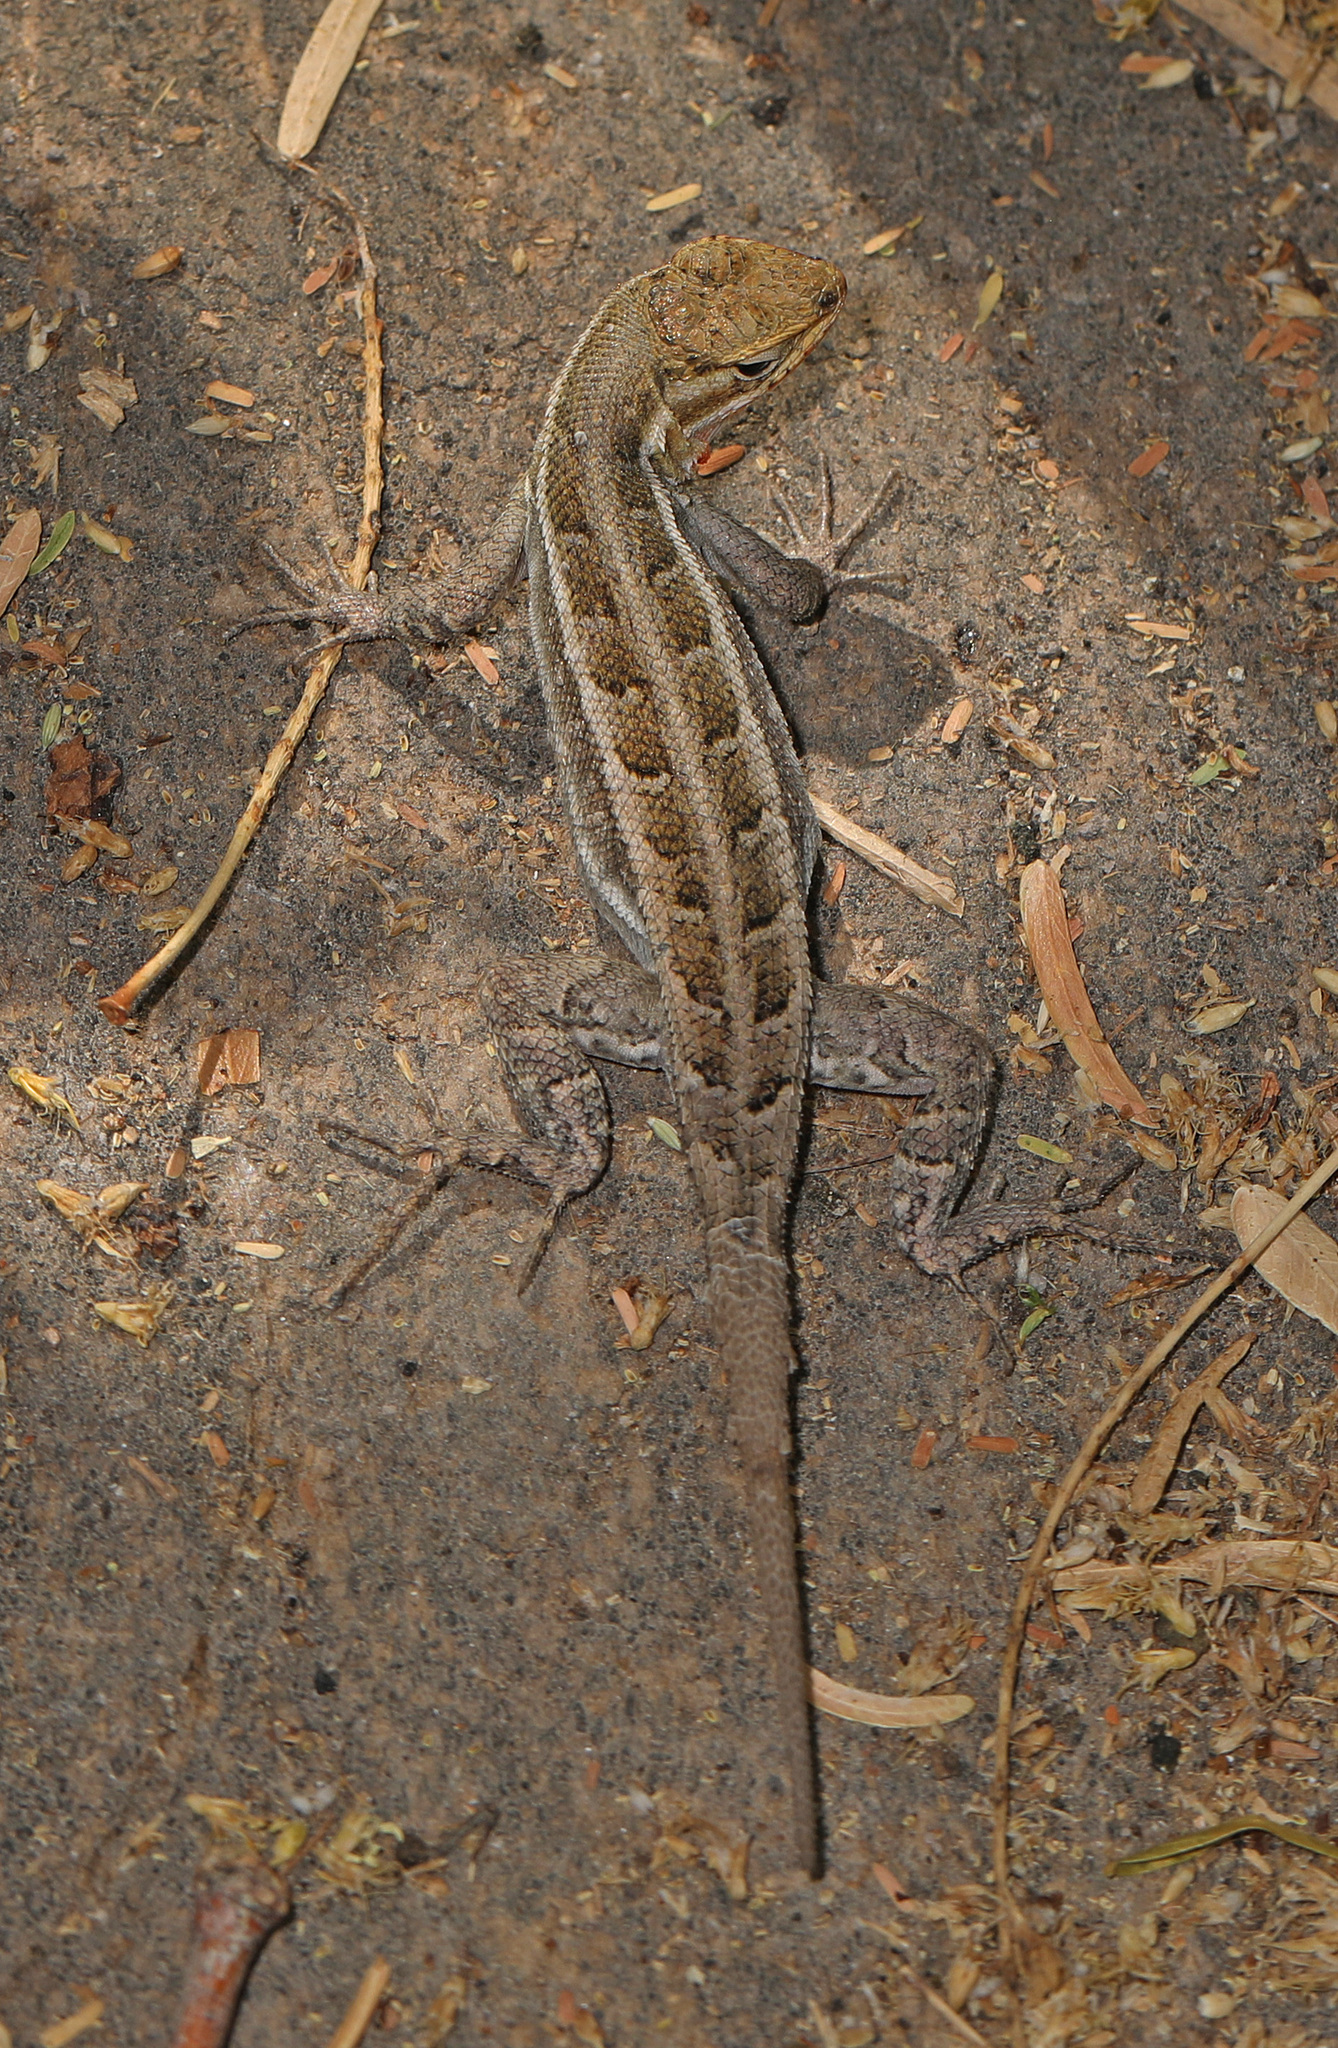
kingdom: Animalia
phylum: Chordata
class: Squamata
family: Phrynosomatidae
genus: Sceloporus
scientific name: Sceloporus variabilis
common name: Rosebelly lizard
